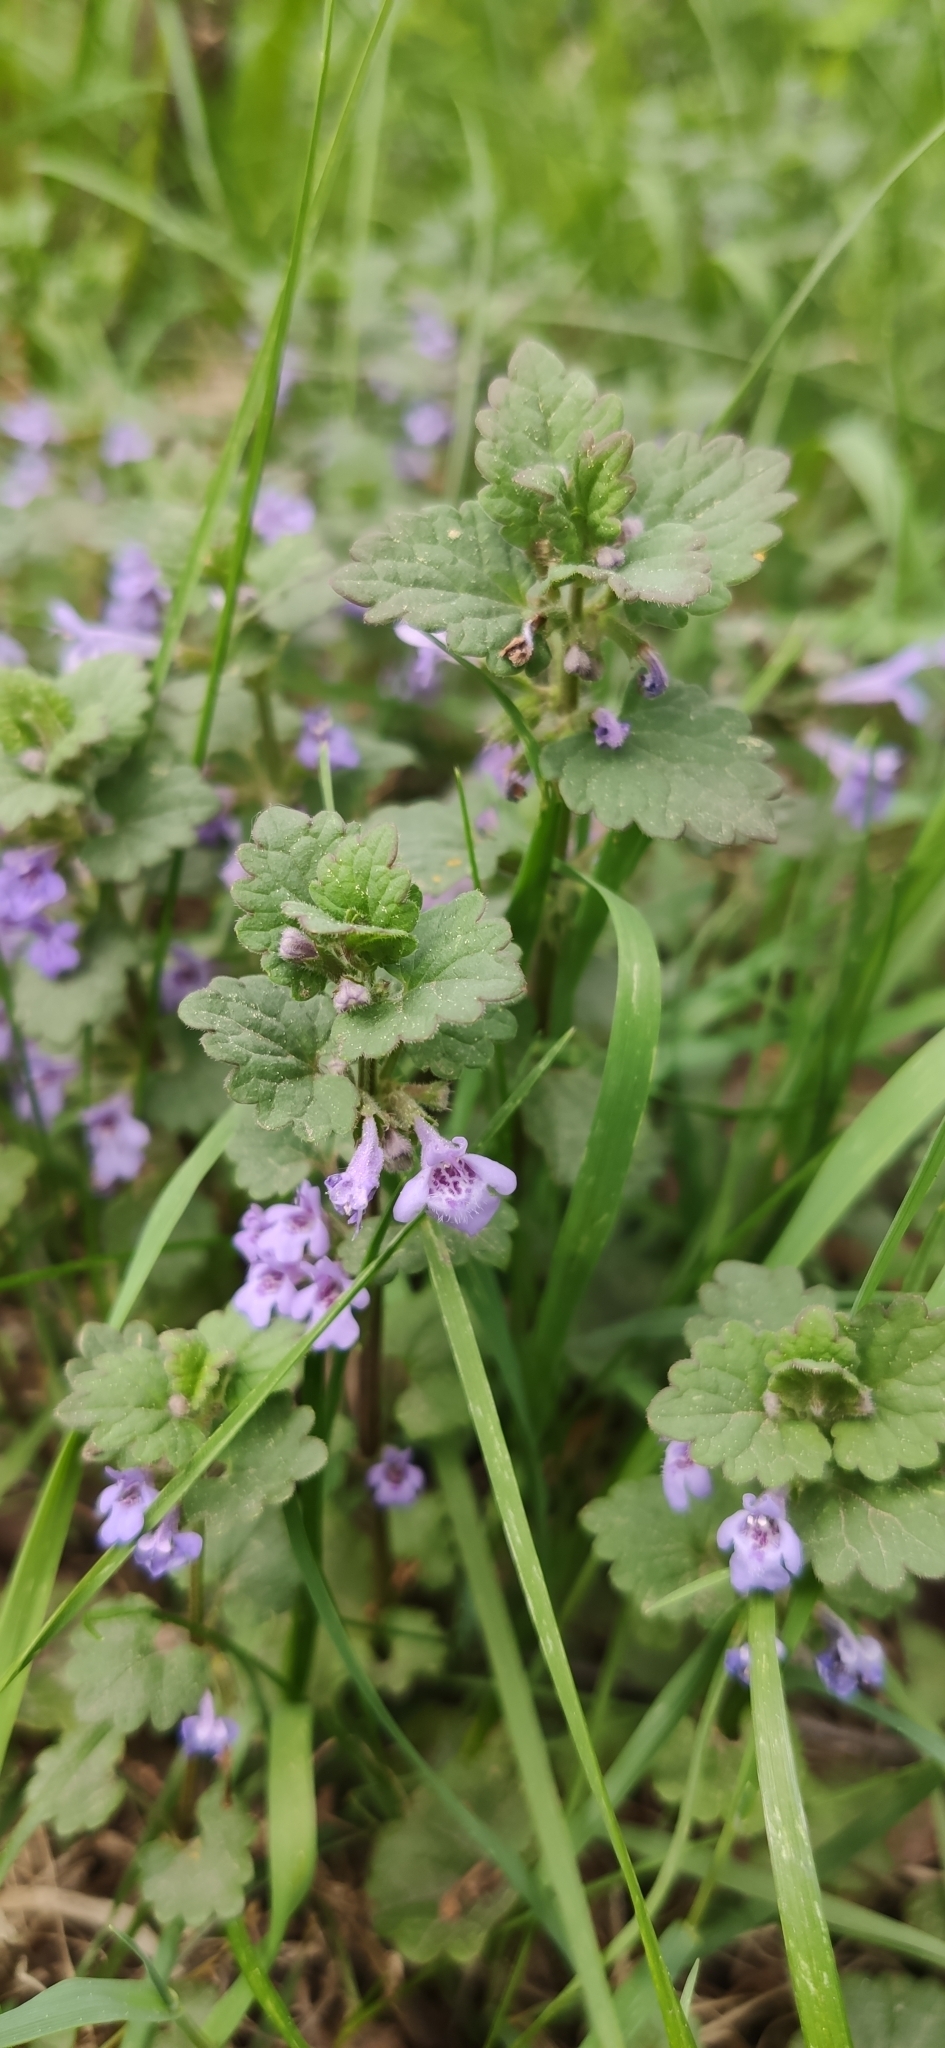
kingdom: Plantae
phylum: Tracheophyta
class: Magnoliopsida
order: Lamiales
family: Lamiaceae
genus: Glechoma
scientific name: Glechoma hederacea
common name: Ground ivy
